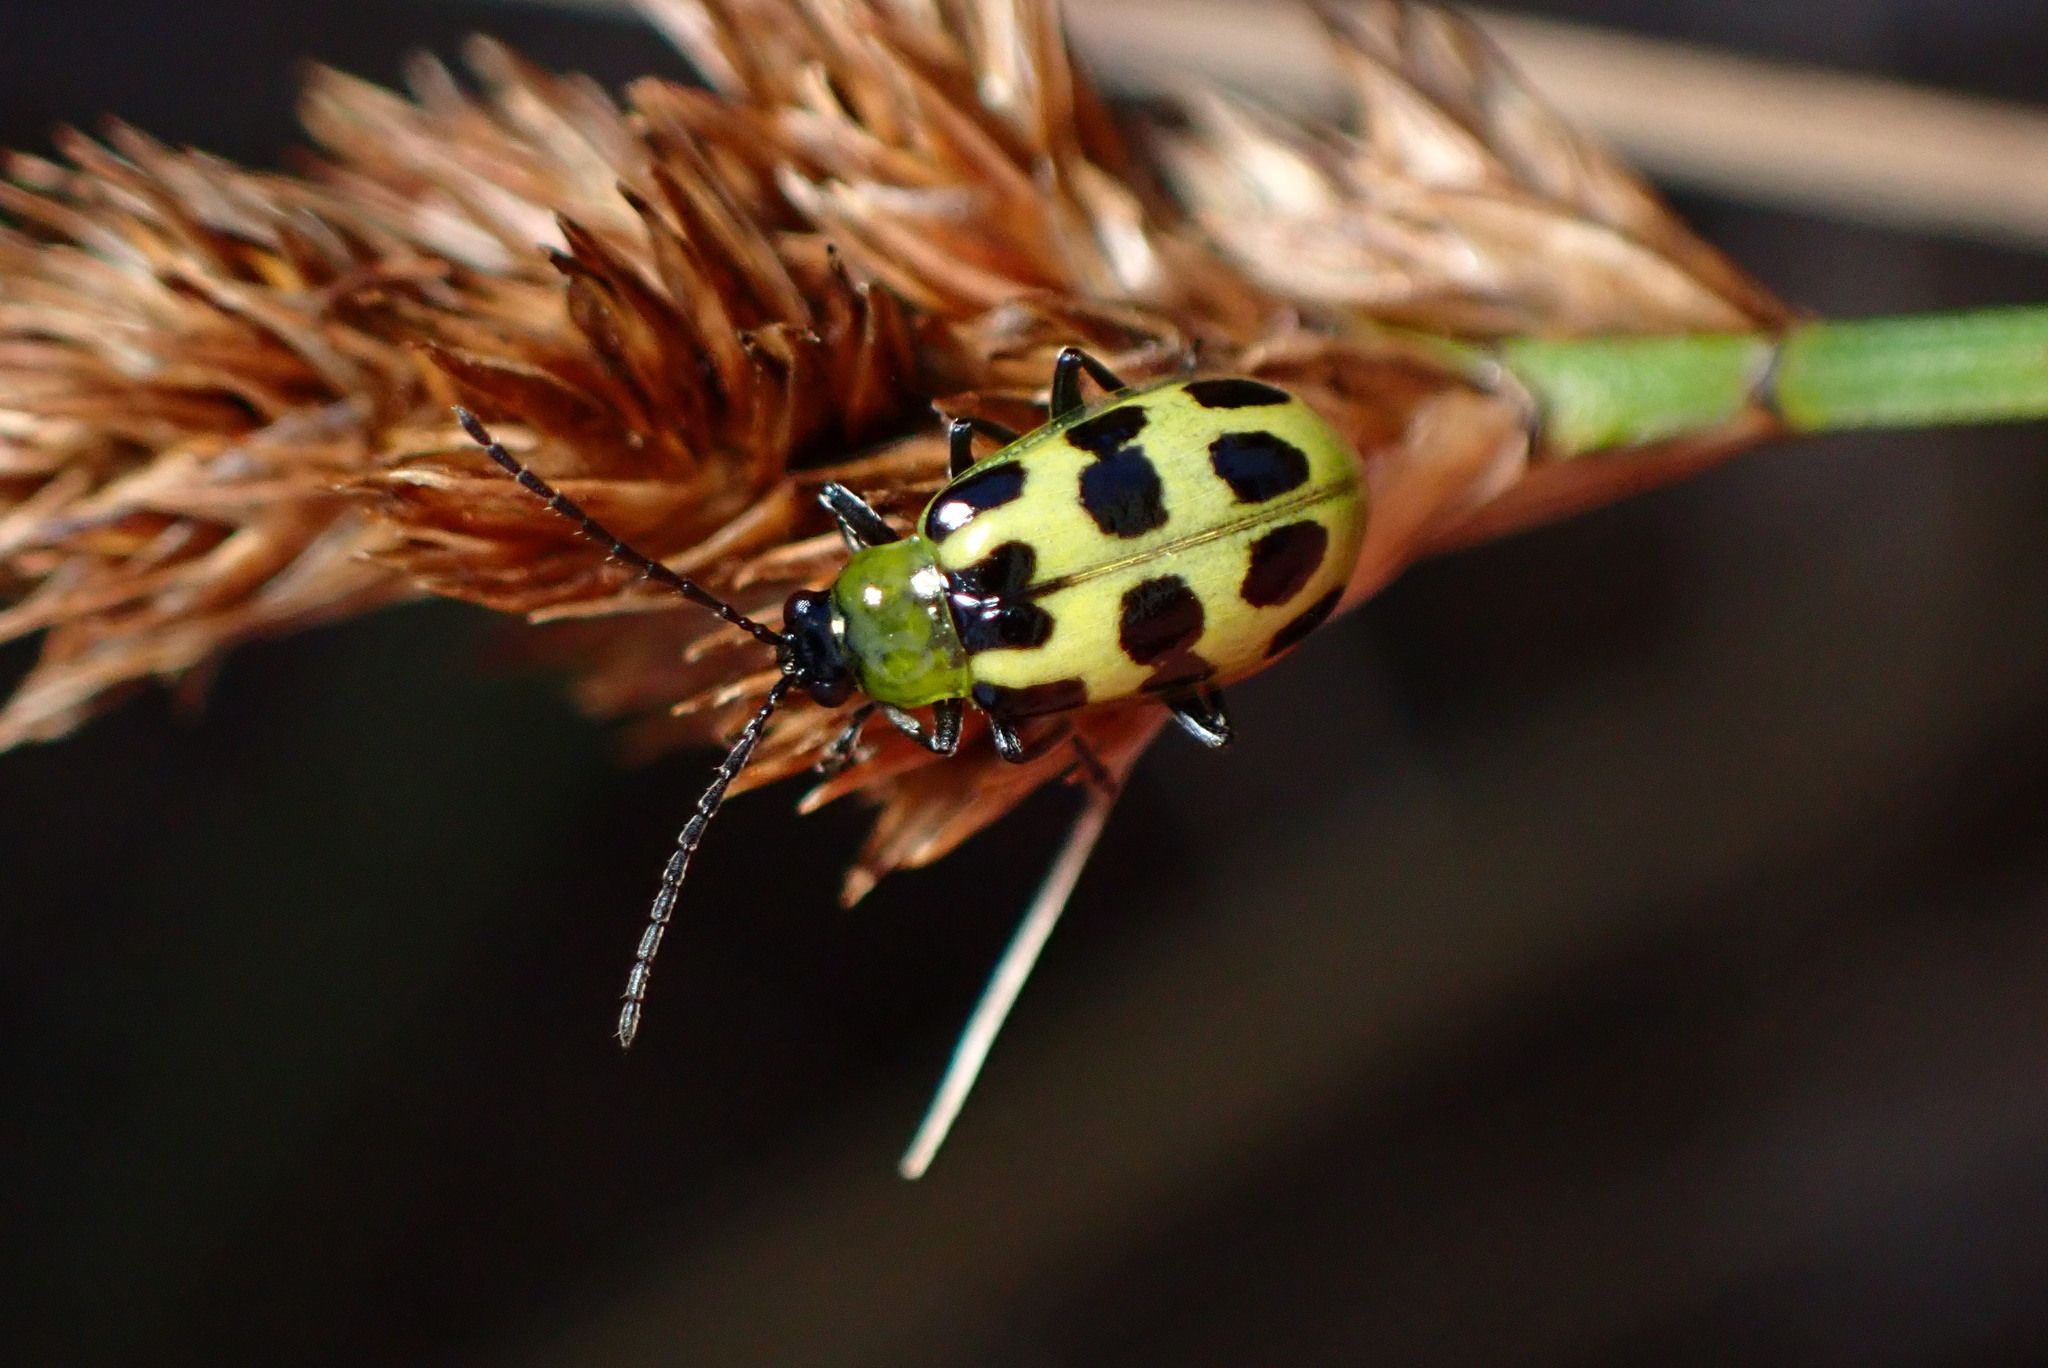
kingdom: Animalia
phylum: Arthropoda
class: Insecta
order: Coleoptera
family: Chrysomelidae
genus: Diabrotica
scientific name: Diabrotica undecimpunctata
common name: Spotted cucumber beetle
